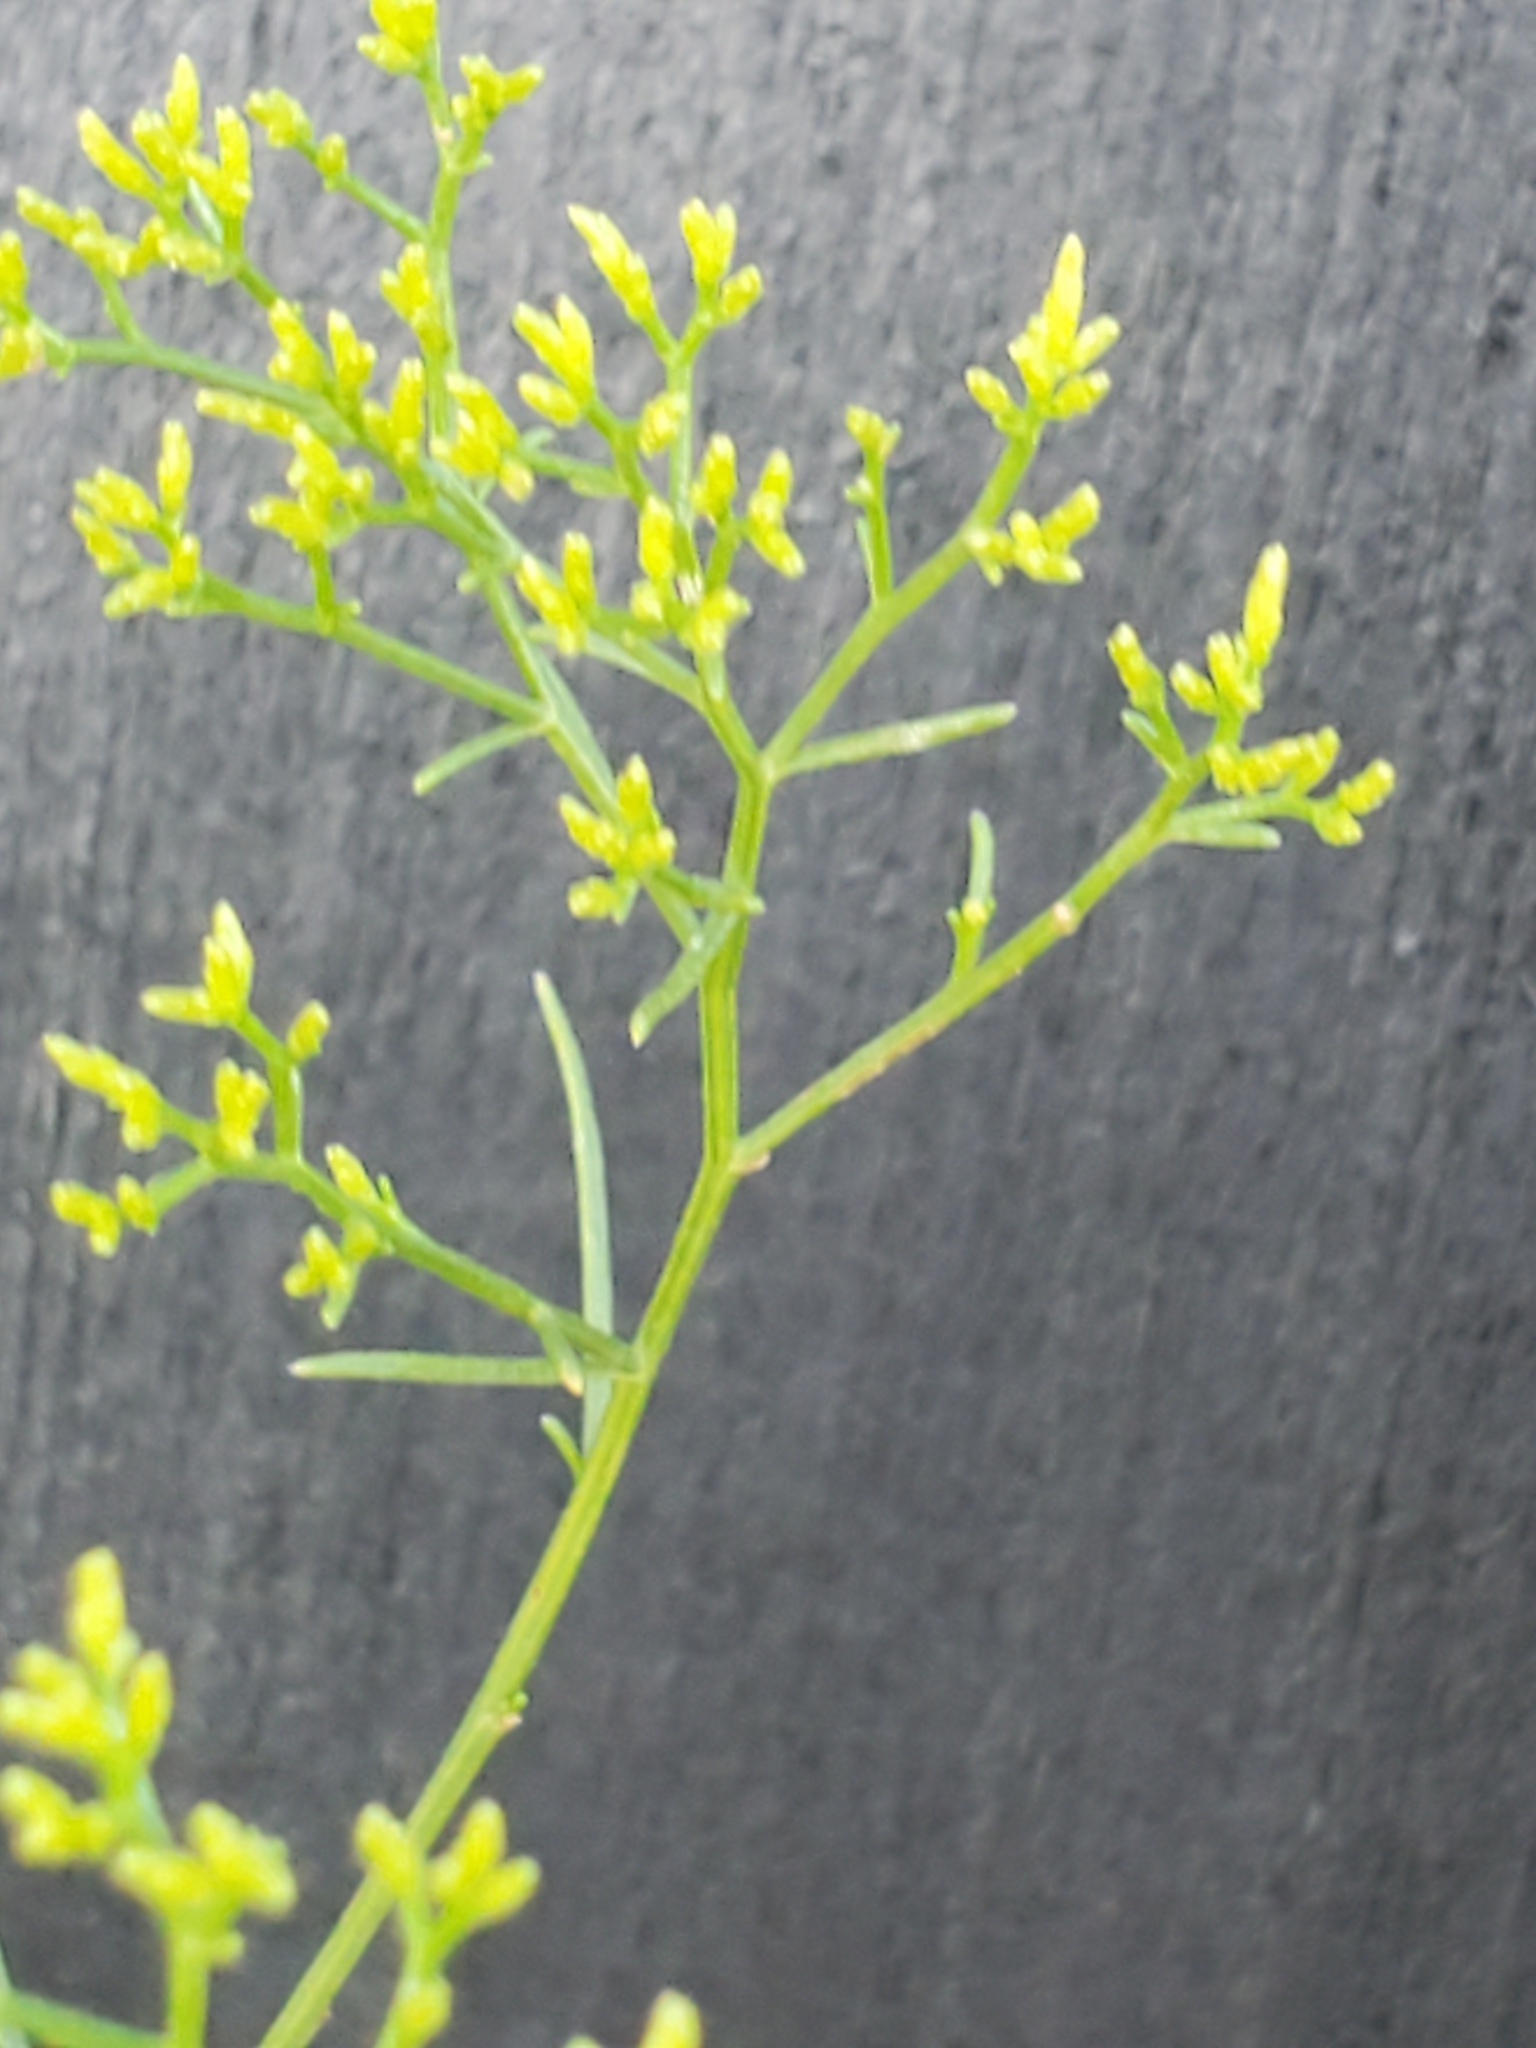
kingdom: Plantae
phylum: Tracheophyta
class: Magnoliopsida
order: Asterales
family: Asteraceae
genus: Gutierrezia
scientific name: Gutierrezia microcephala
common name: Thread snakeweed
